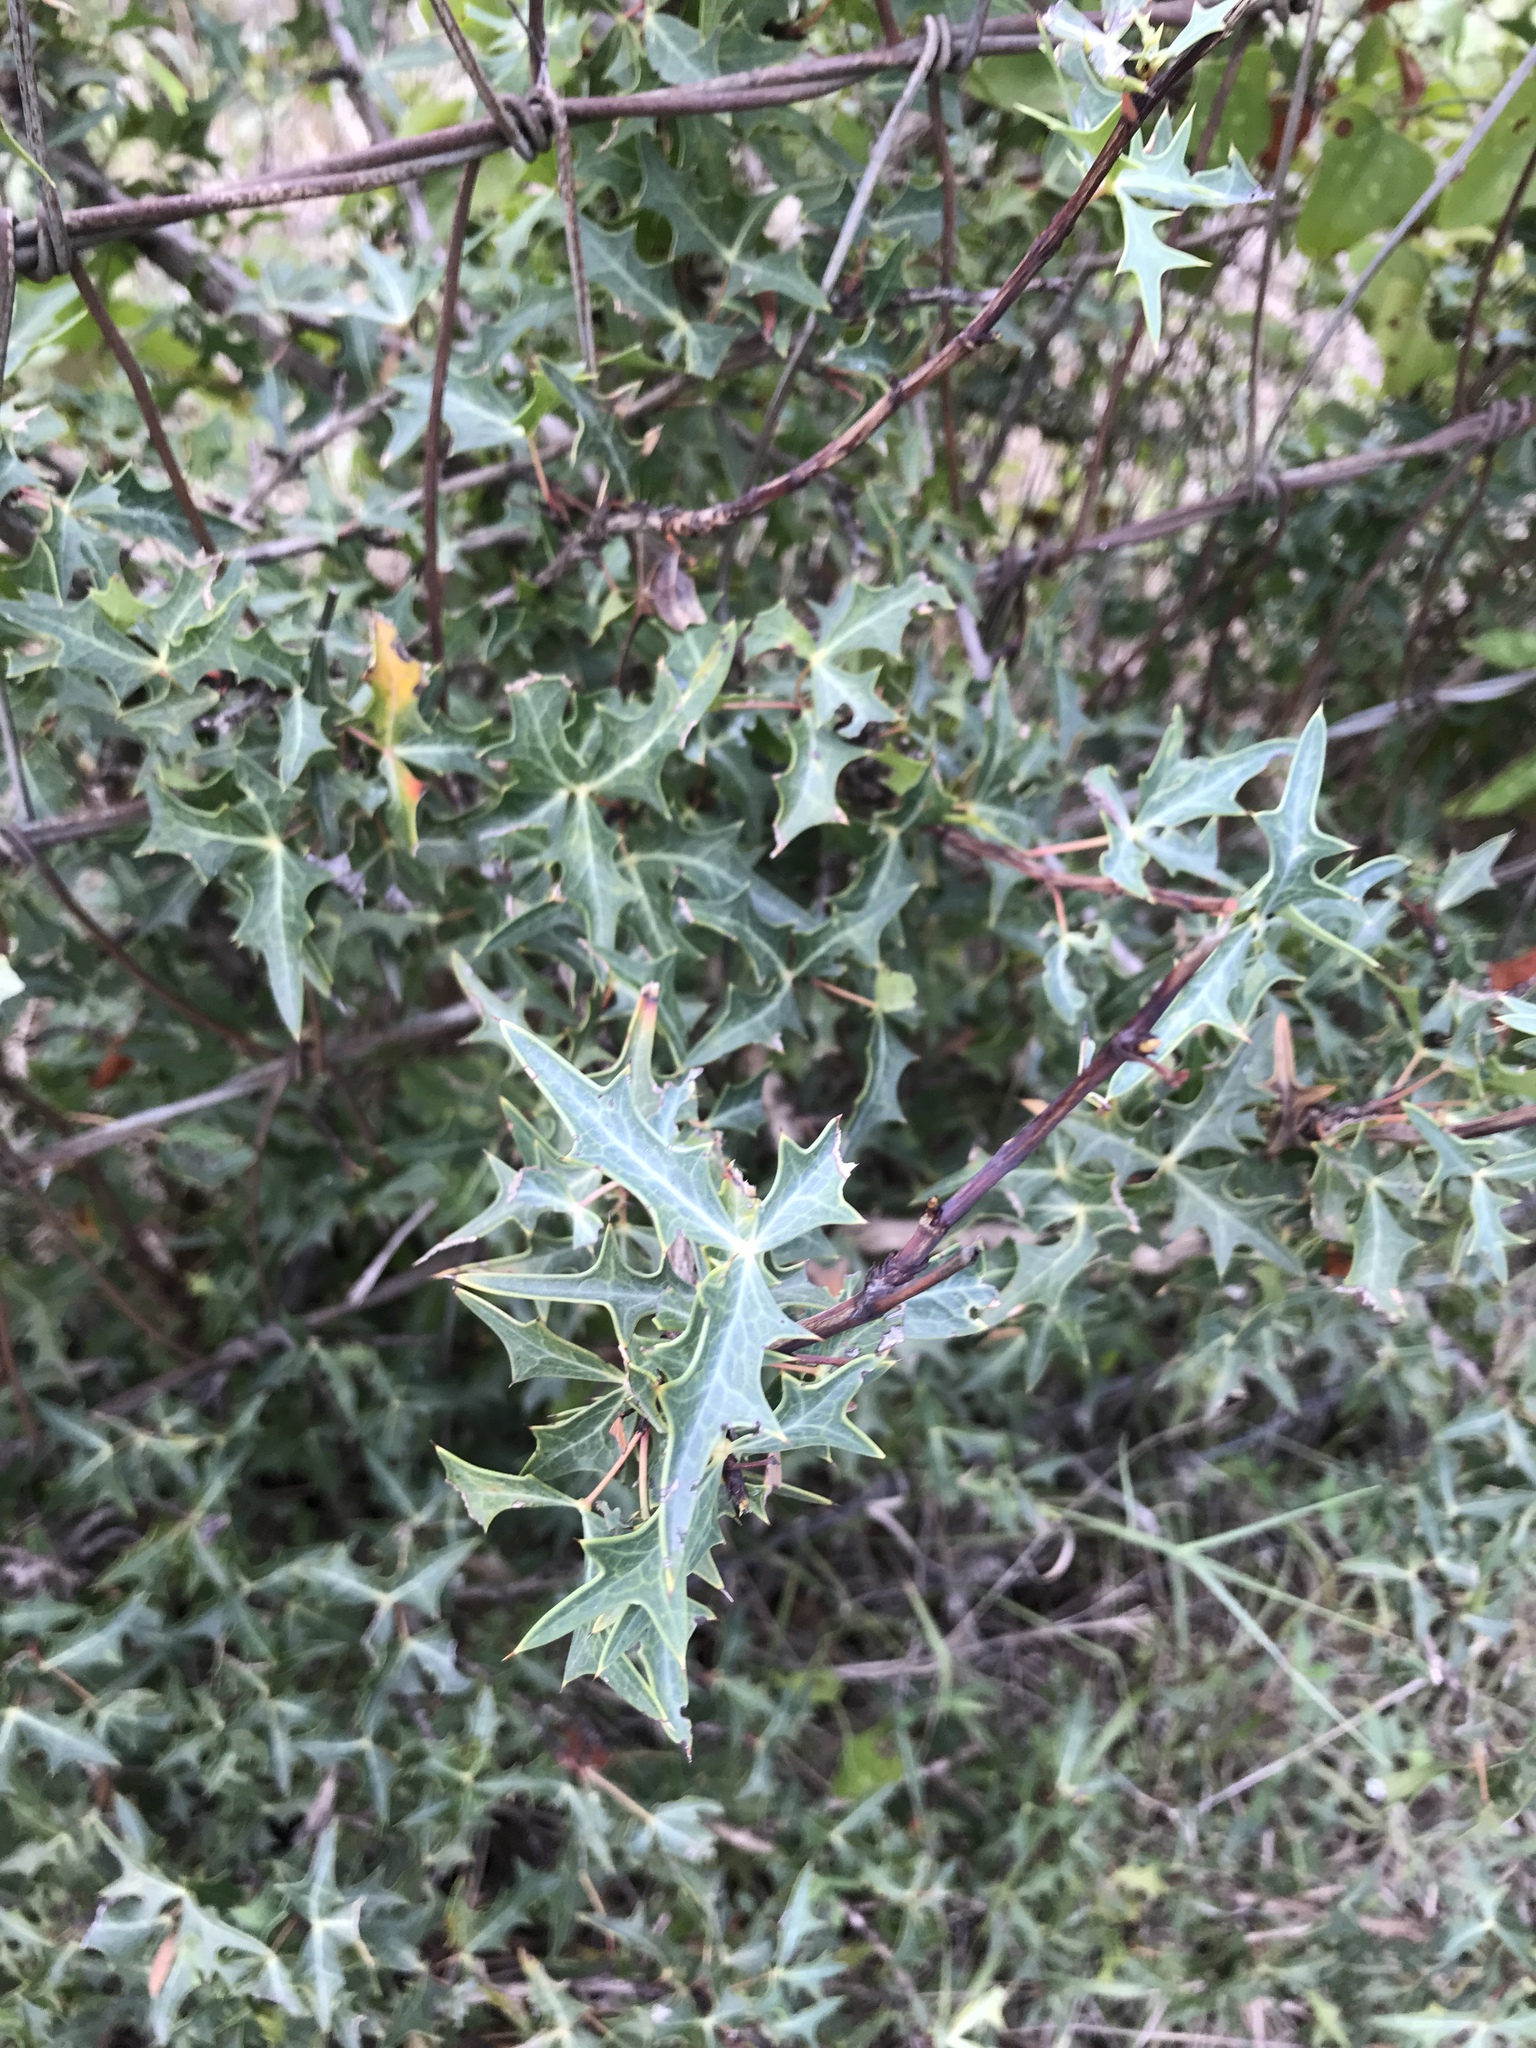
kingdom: Plantae
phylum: Tracheophyta
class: Magnoliopsida
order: Ranunculales
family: Berberidaceae
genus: Alloberberis
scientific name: Alloberberis trifoliolata
